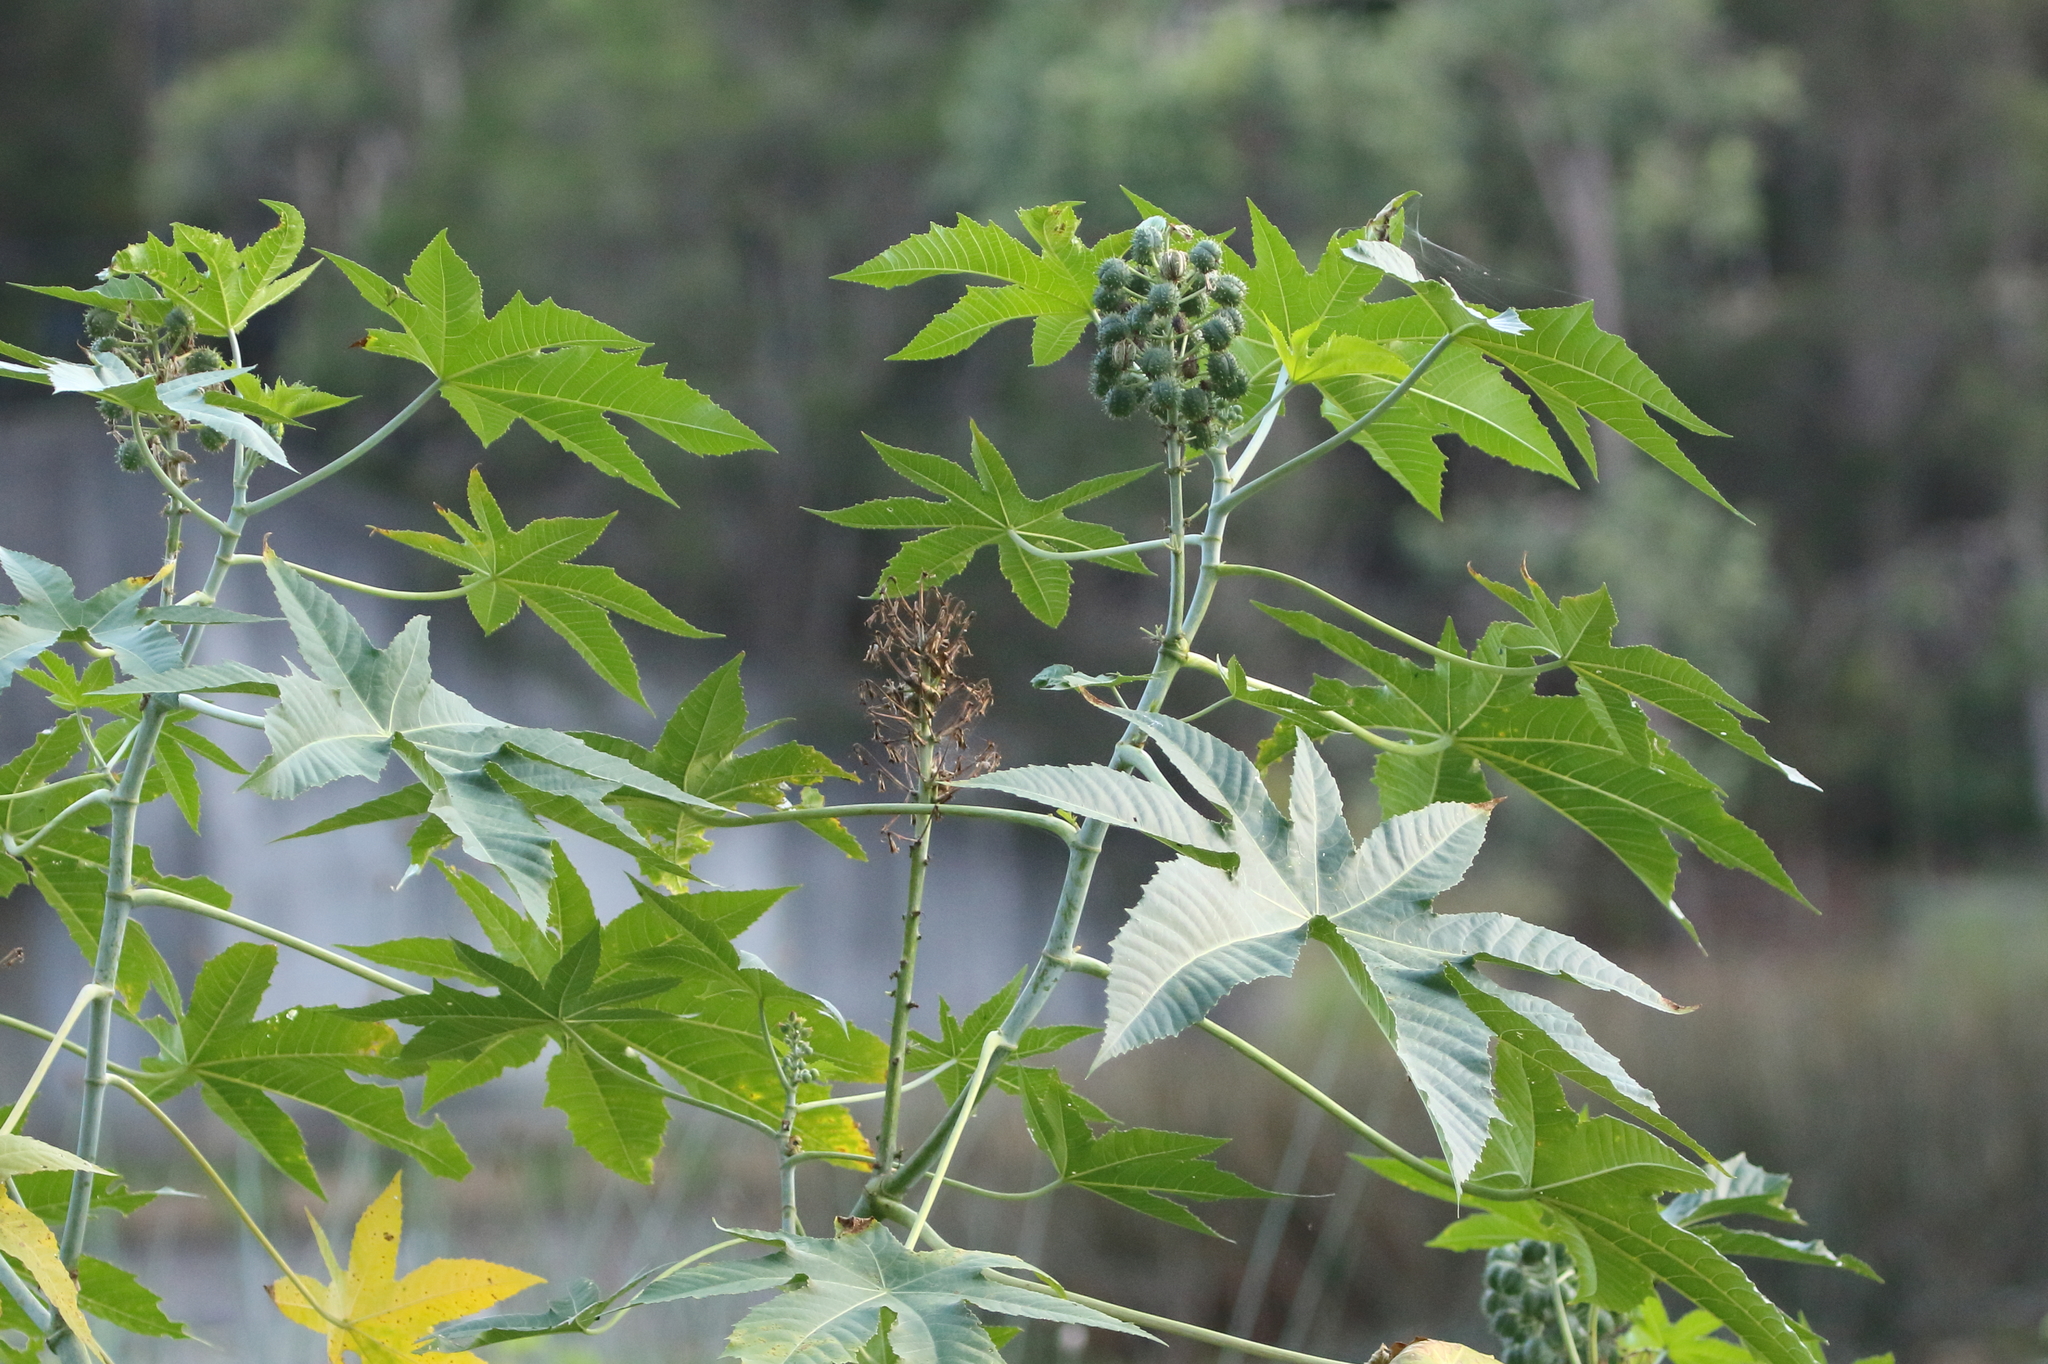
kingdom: Plantae
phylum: Tracheophyta
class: Magnoliopsida
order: Malpighiales
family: Euphorbiaceae
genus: Ricinus
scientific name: Ricinus communis
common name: Castor-oil-plant
